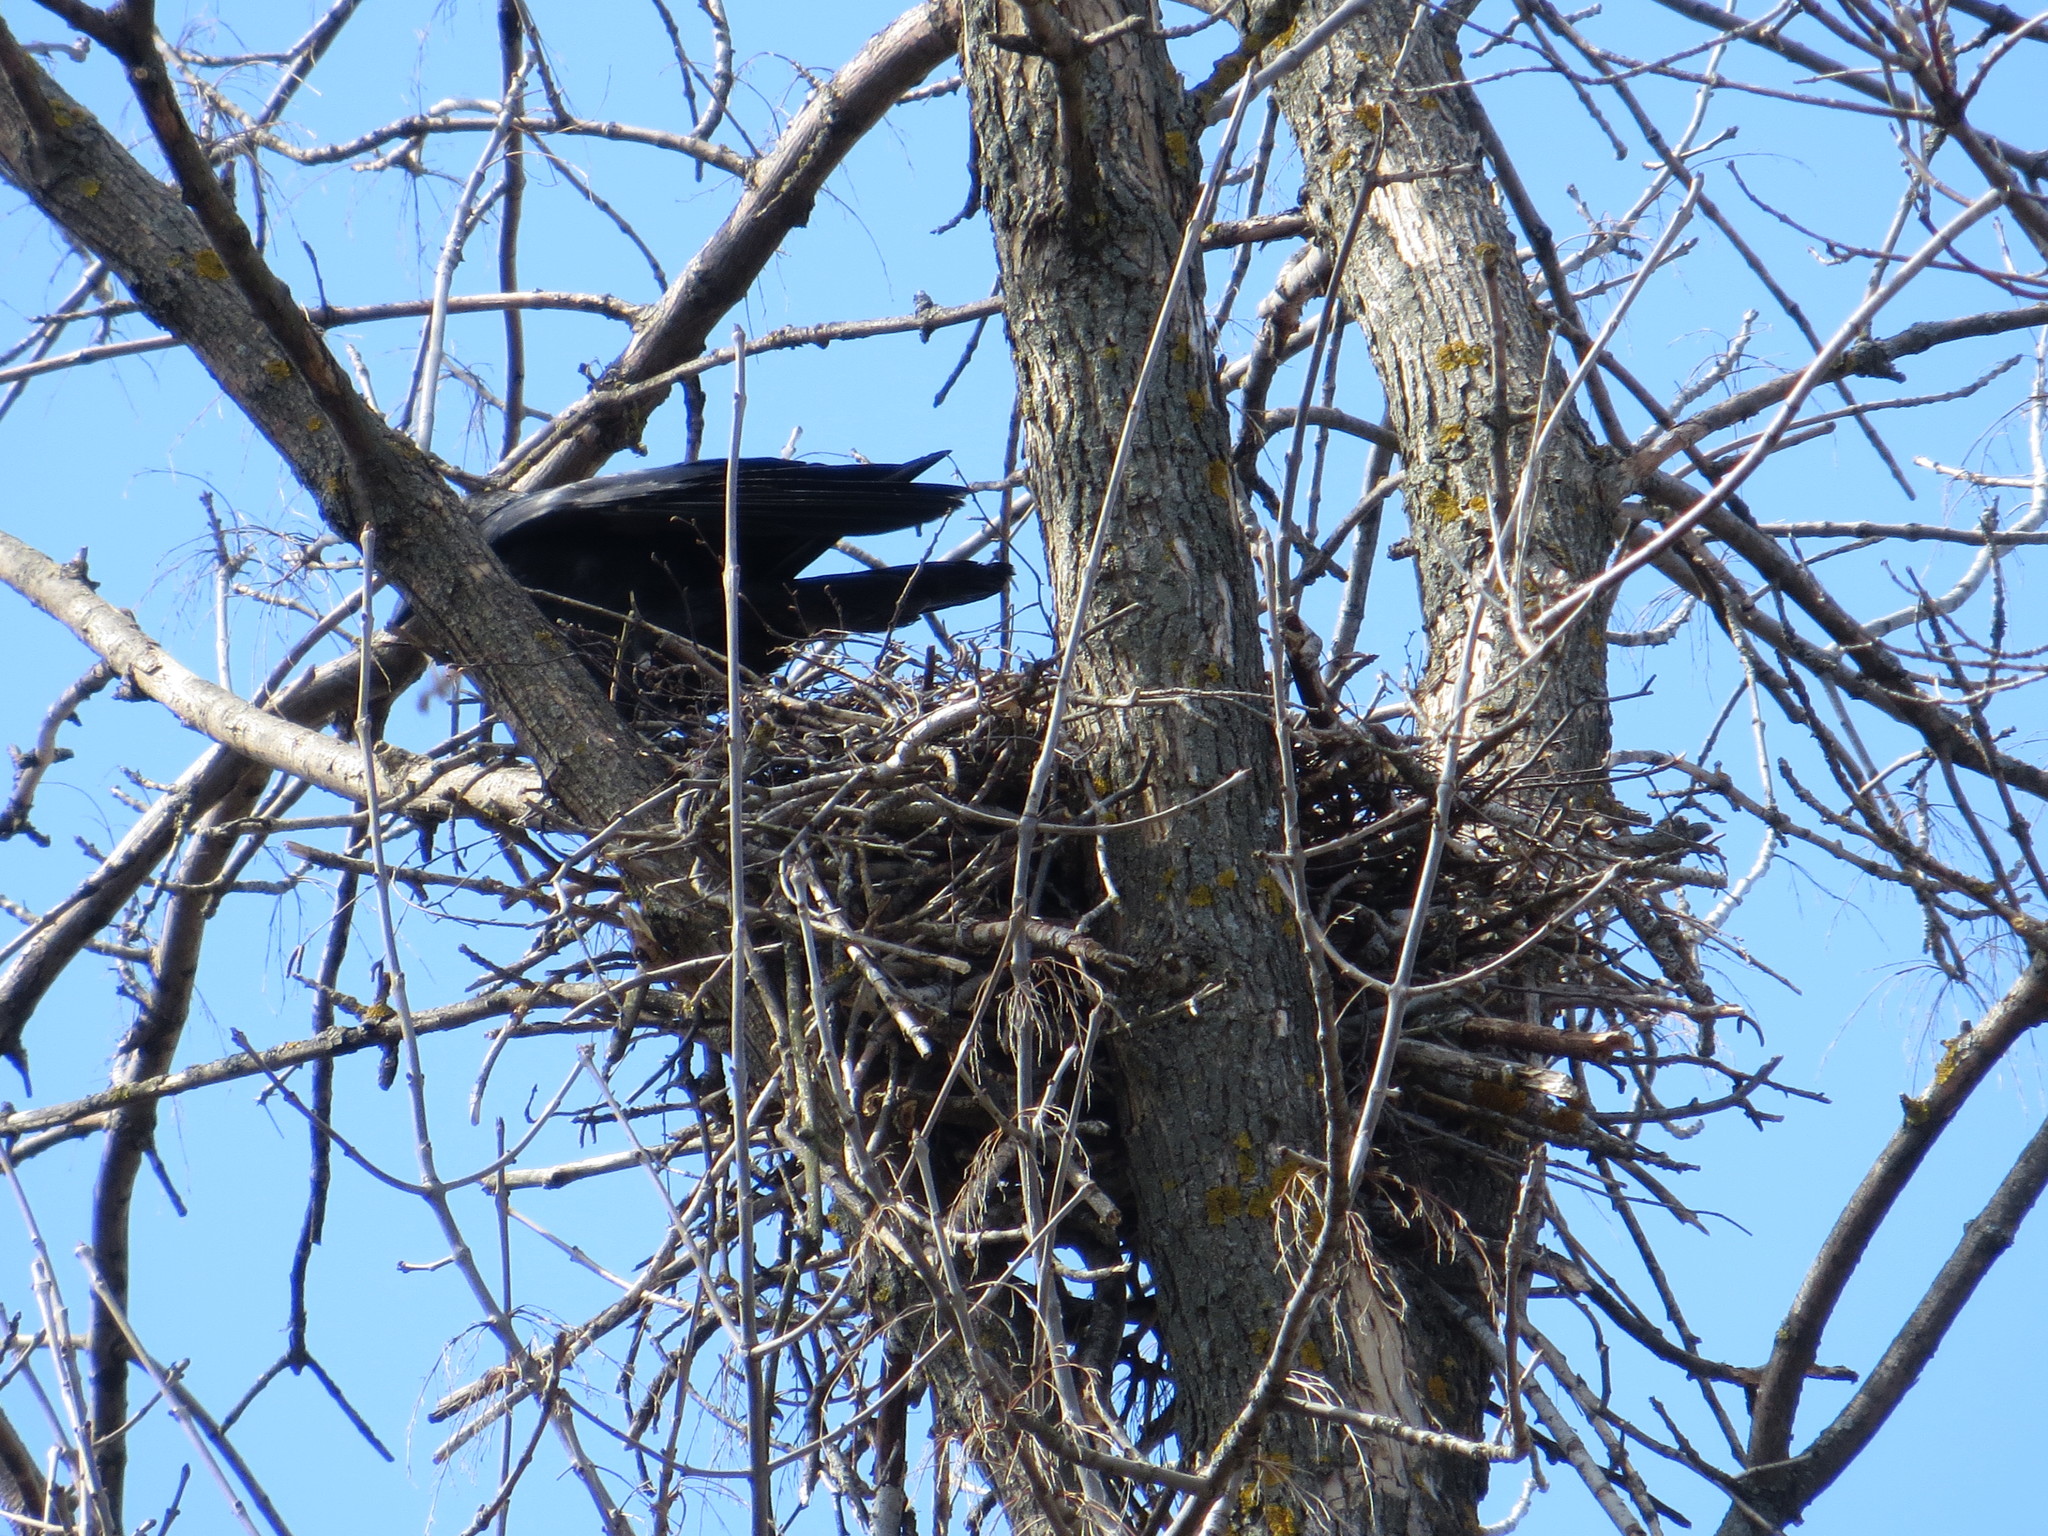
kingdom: Animalia
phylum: Chordata
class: Aves
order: Passeriformes
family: Corvidae
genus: Corvus
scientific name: Corvus frugilegus
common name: Rook
